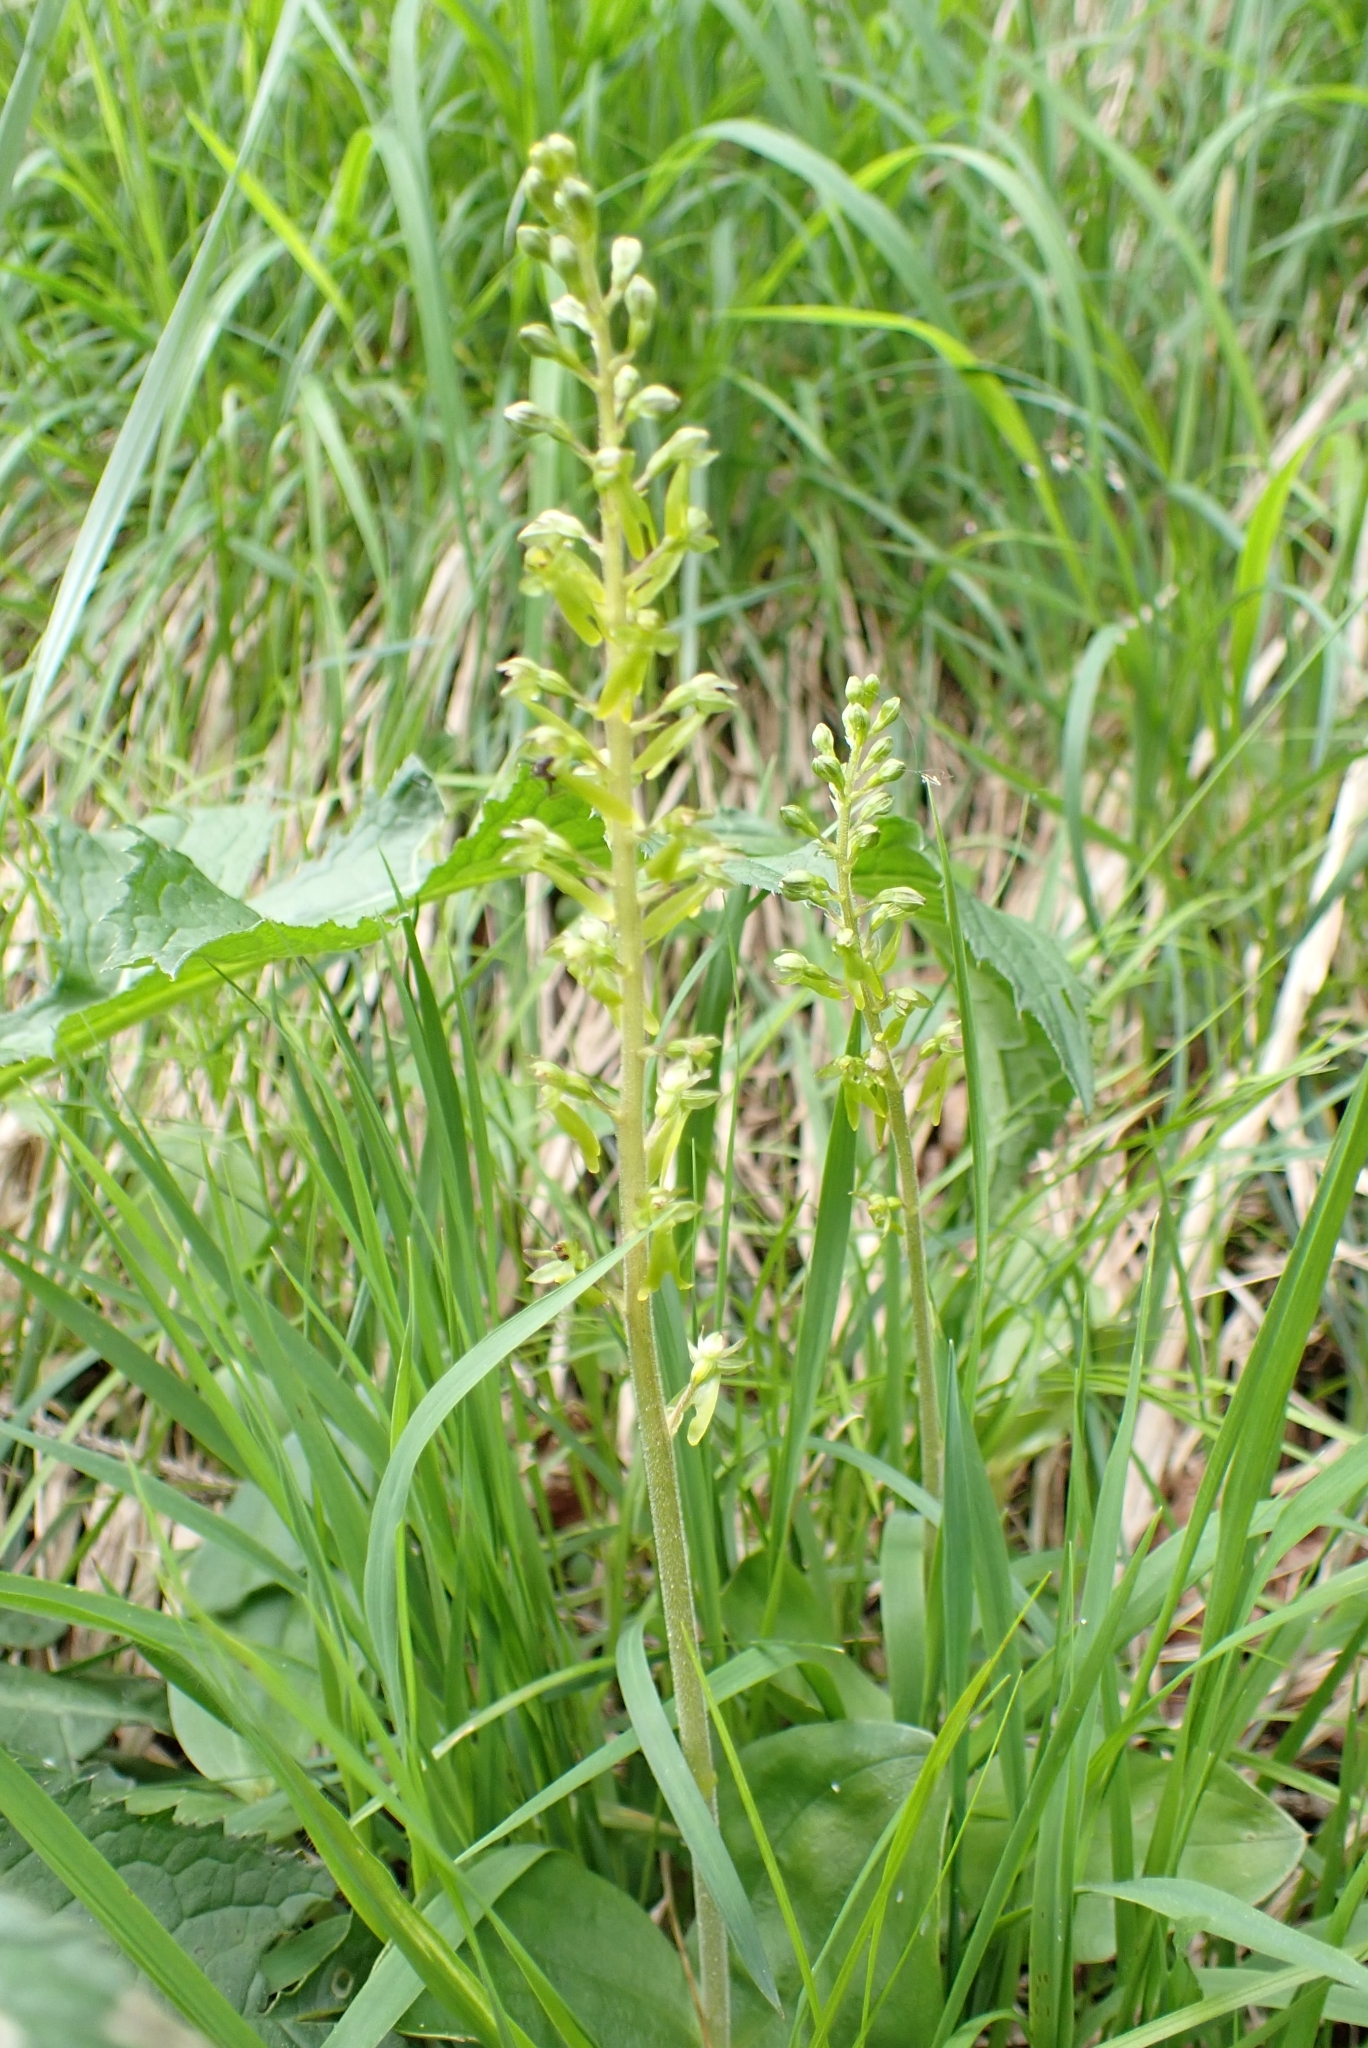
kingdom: Plantae
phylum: Tracheophyta
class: Liliopsida
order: Asparagales
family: Orchidaceae
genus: Neottia
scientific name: Neottia ovata
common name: Common twayblade
